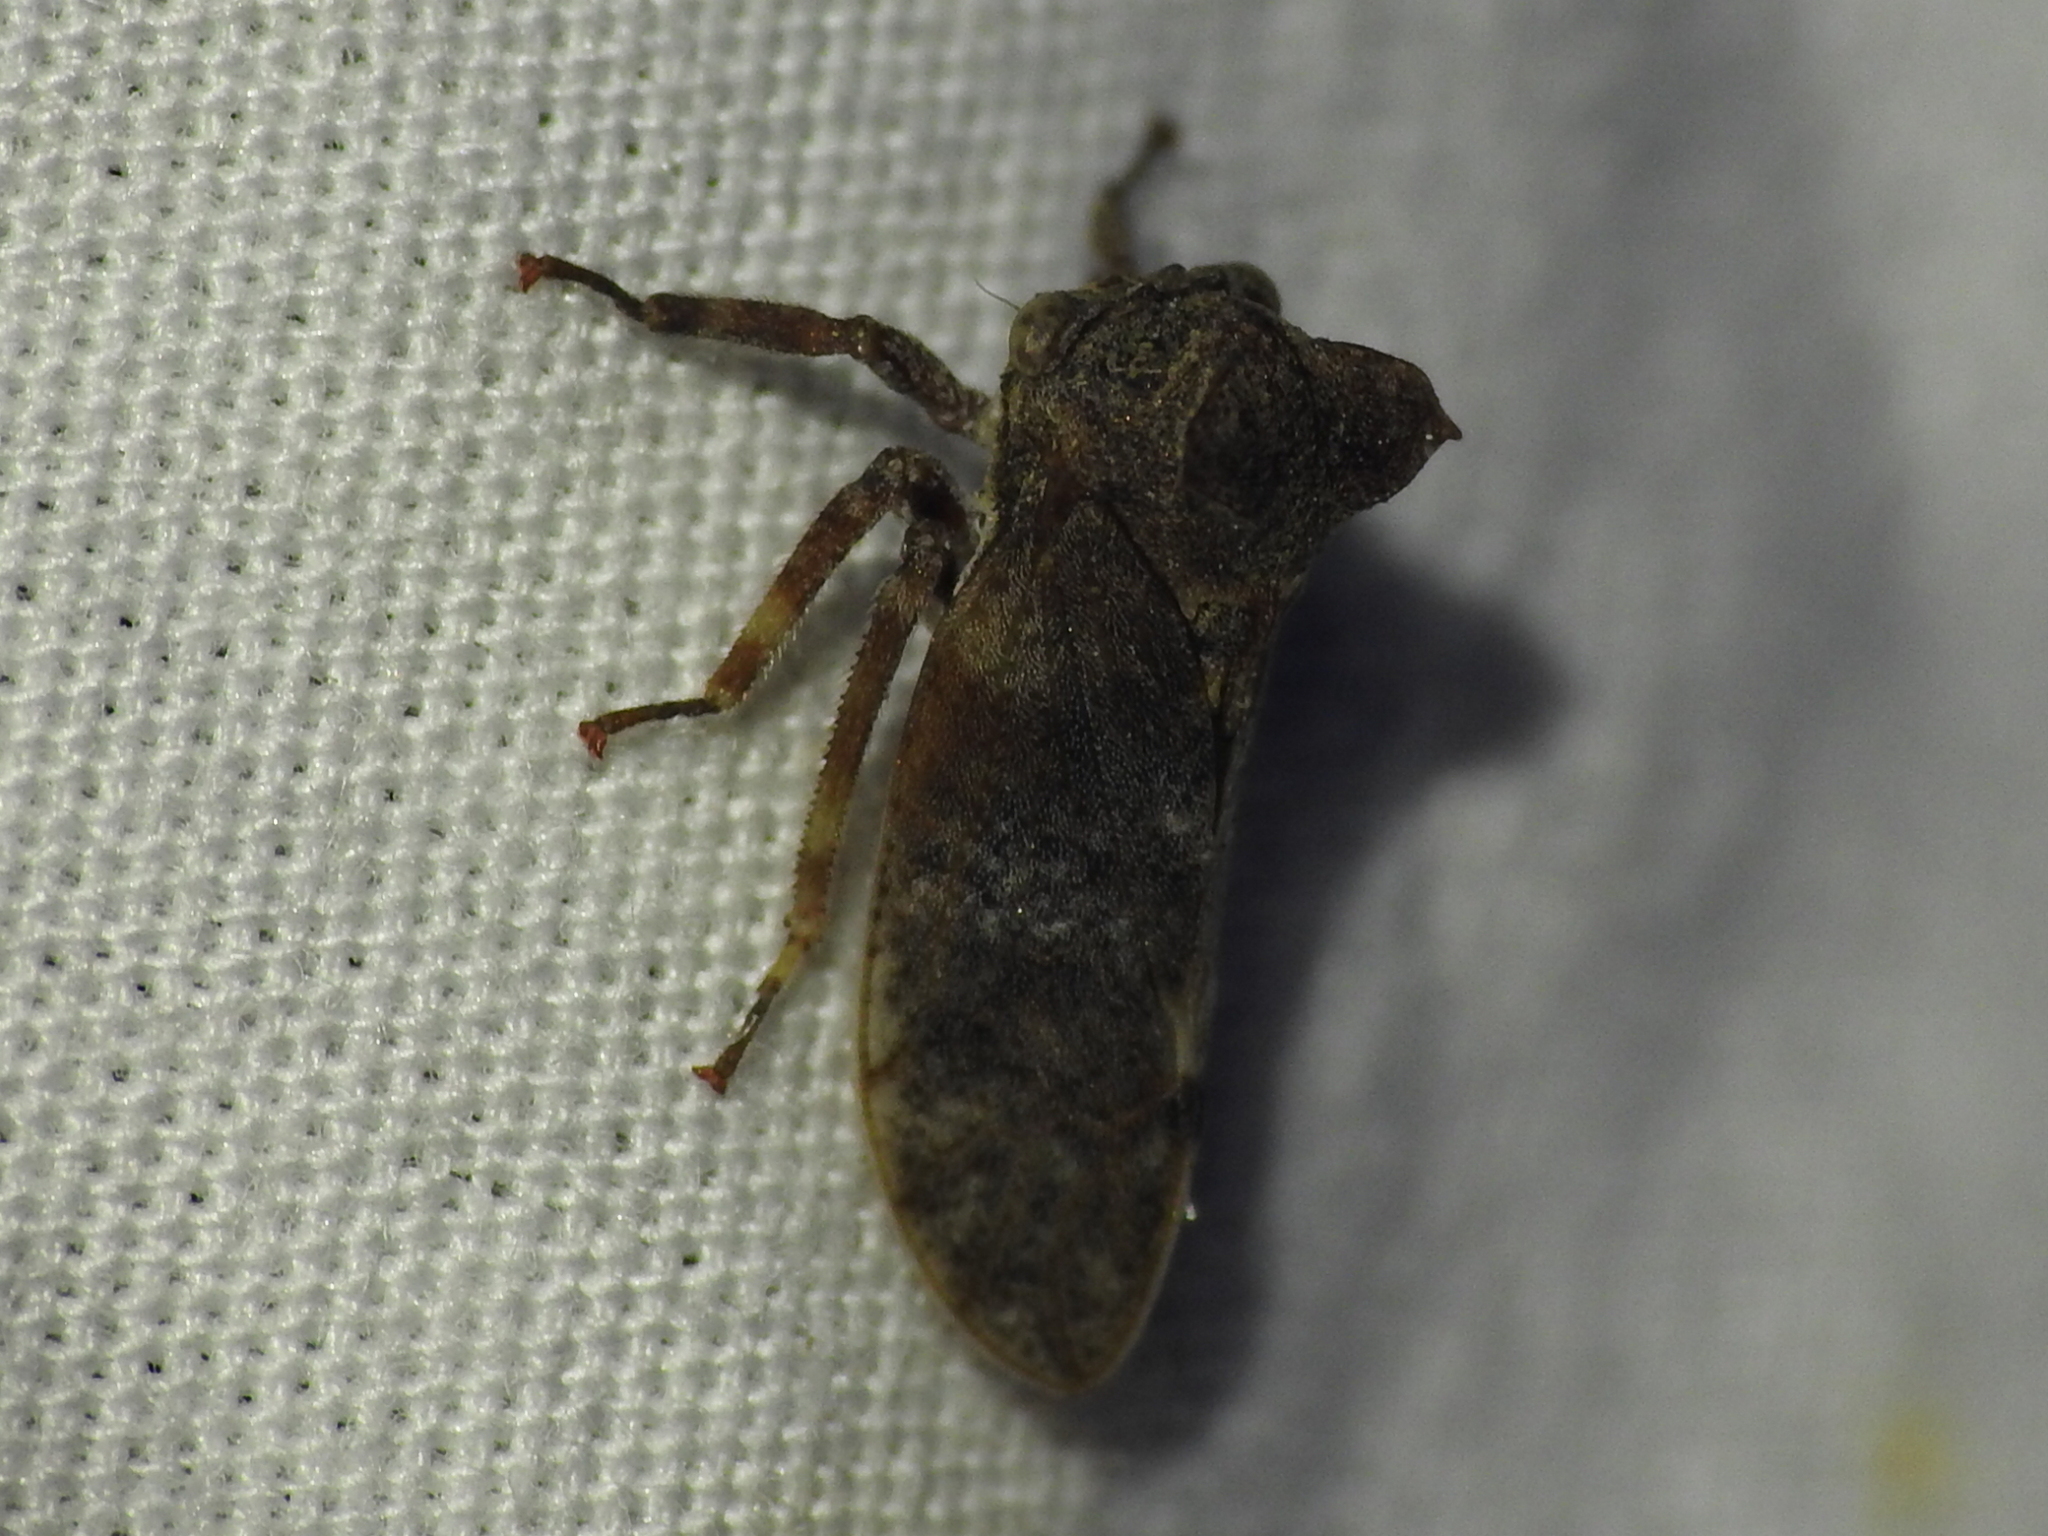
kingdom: Animalia
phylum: Arthropoda
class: Insecta
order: Hemiptera
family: Membracidae
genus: Microcentrus
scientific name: Microcentrus perdita
